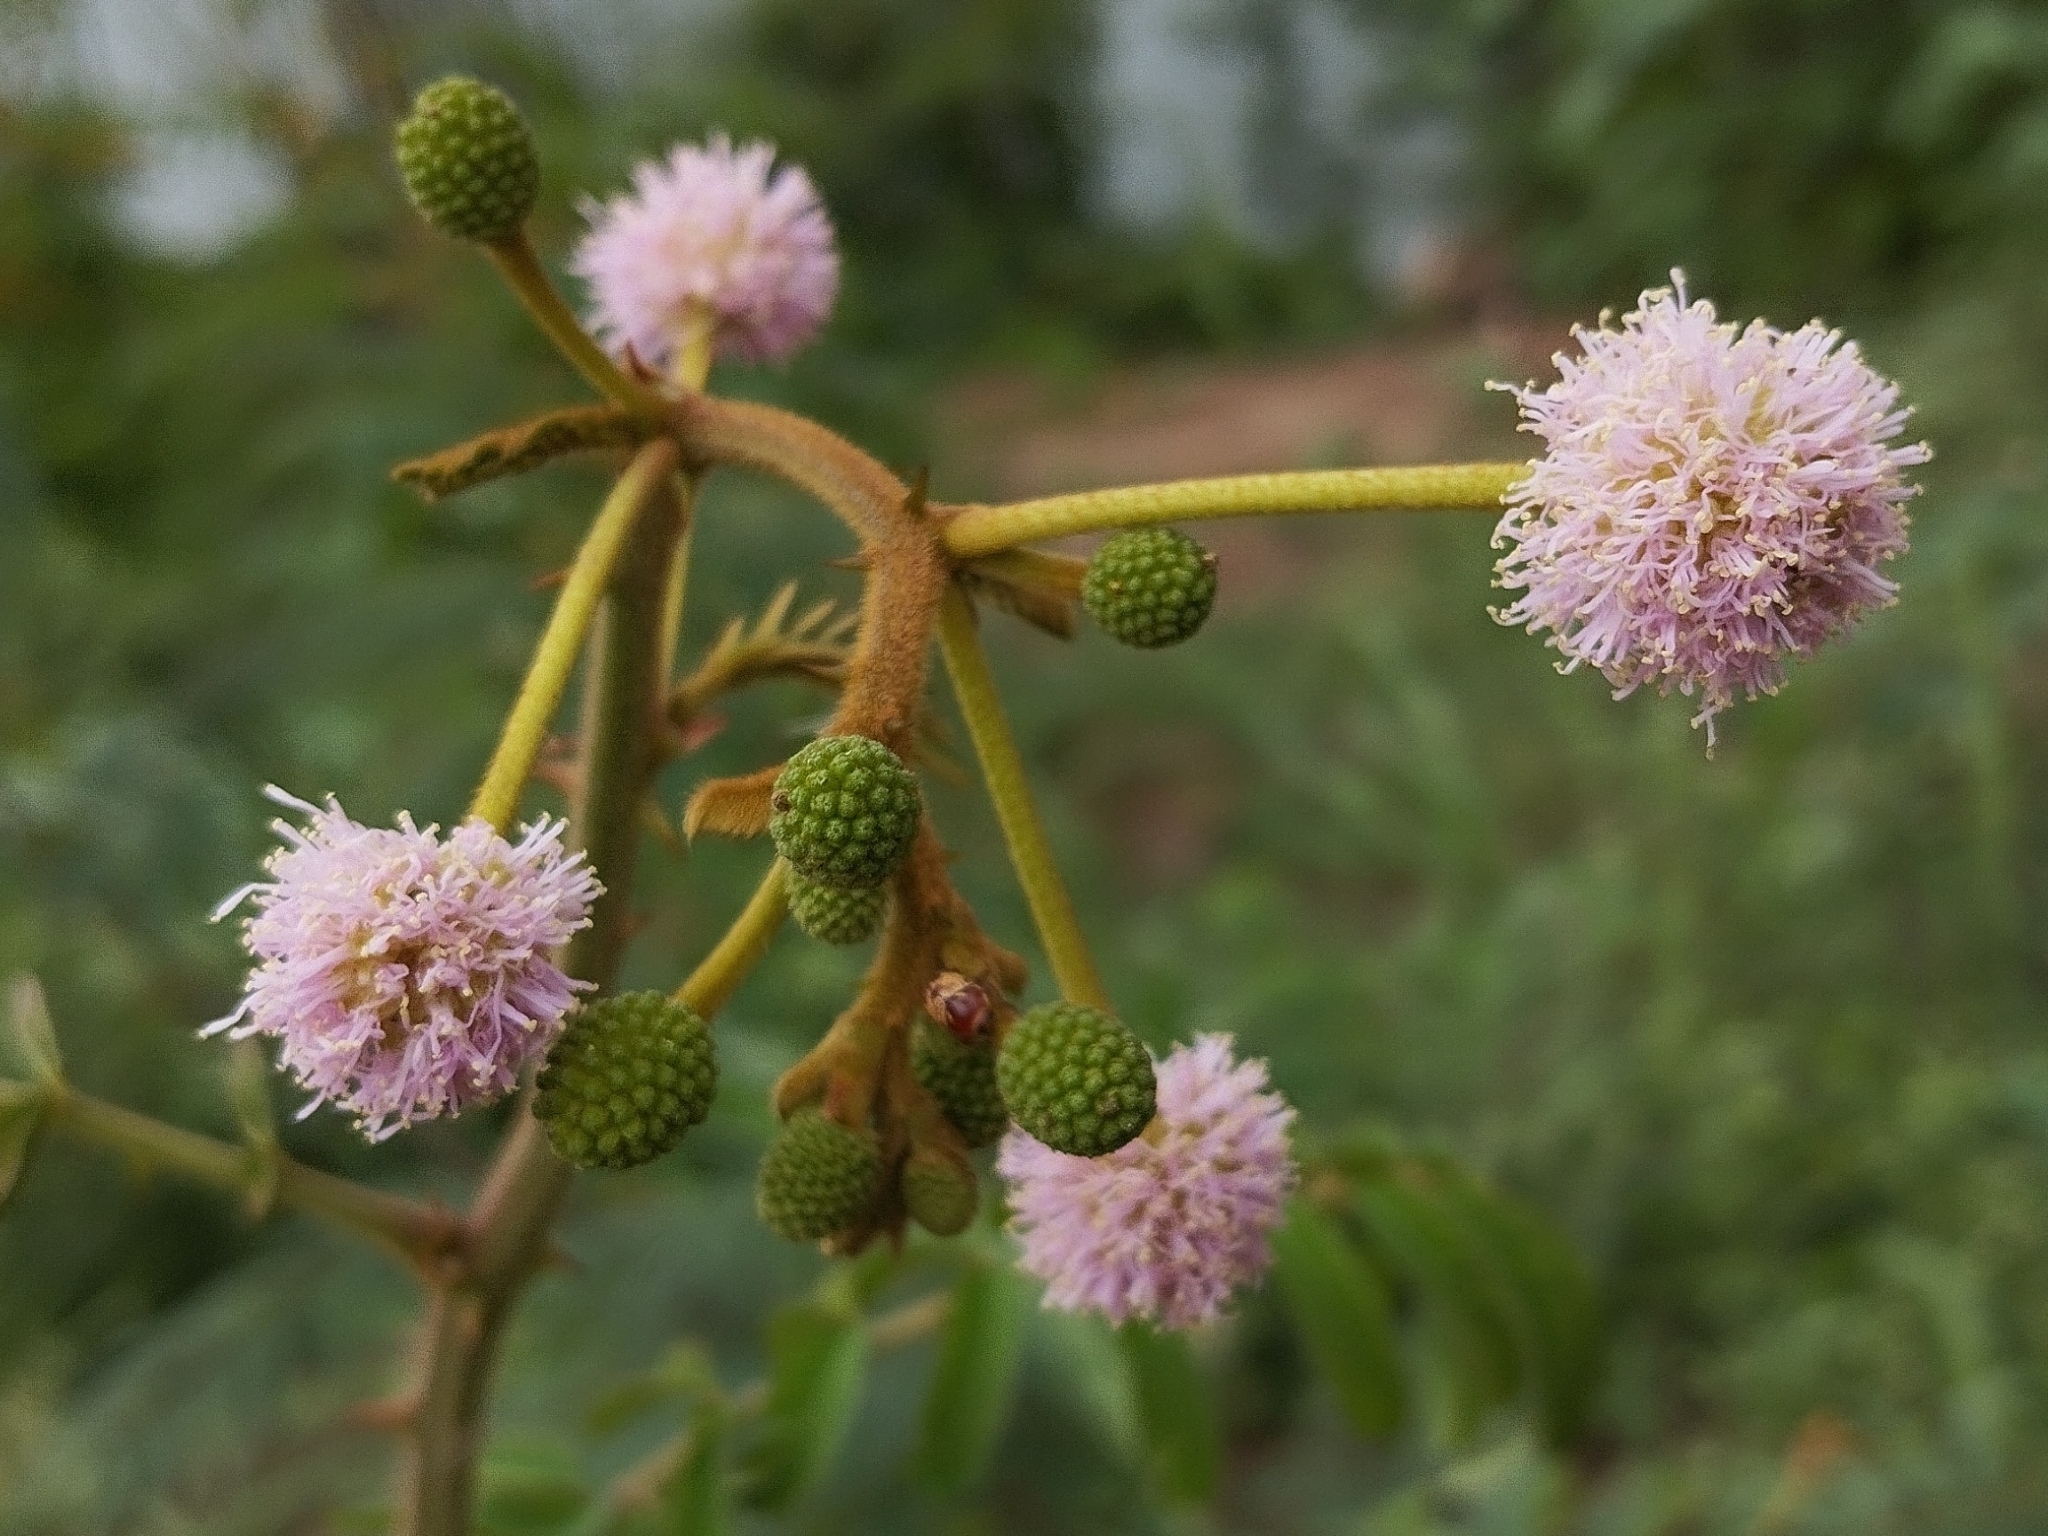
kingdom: Plantae
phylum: Tracheophyta
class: Magnoliopsida
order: Fabales
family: Fabaceae
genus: Mimosa
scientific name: Mimosa pigra
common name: Black mimosa
